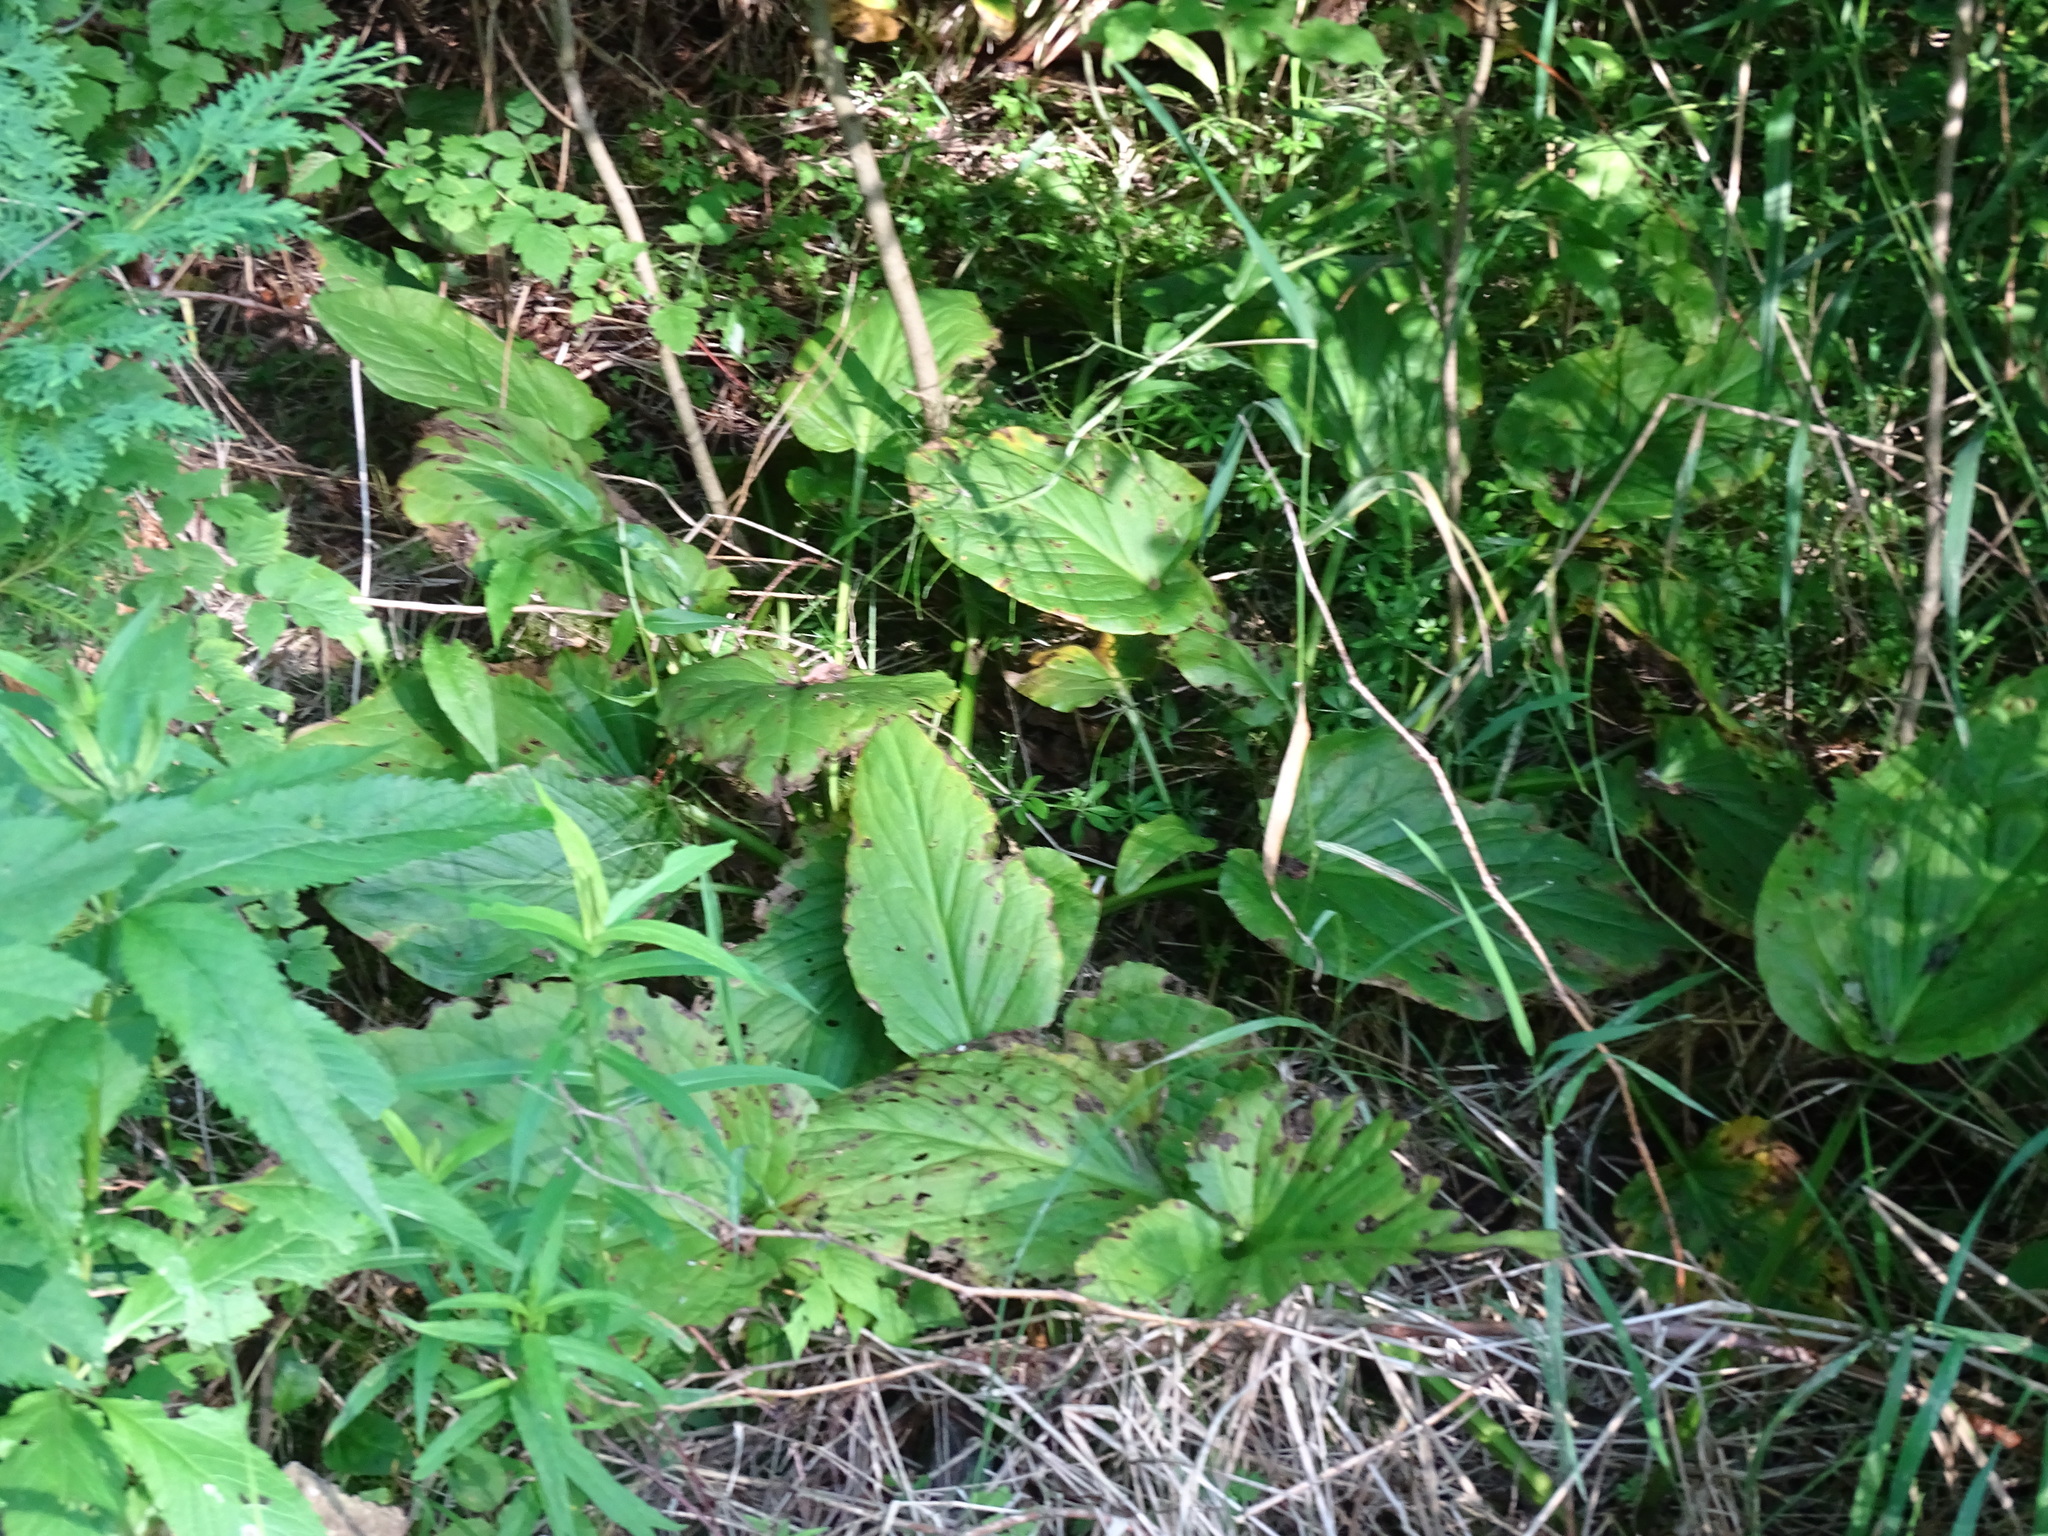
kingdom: Plantae
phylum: Tracheophyta
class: Liliopsida
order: Alismatales
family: Araceae
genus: Symplocarpus
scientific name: Symplocarpus foetidus
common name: Eastern skunk cabbage
